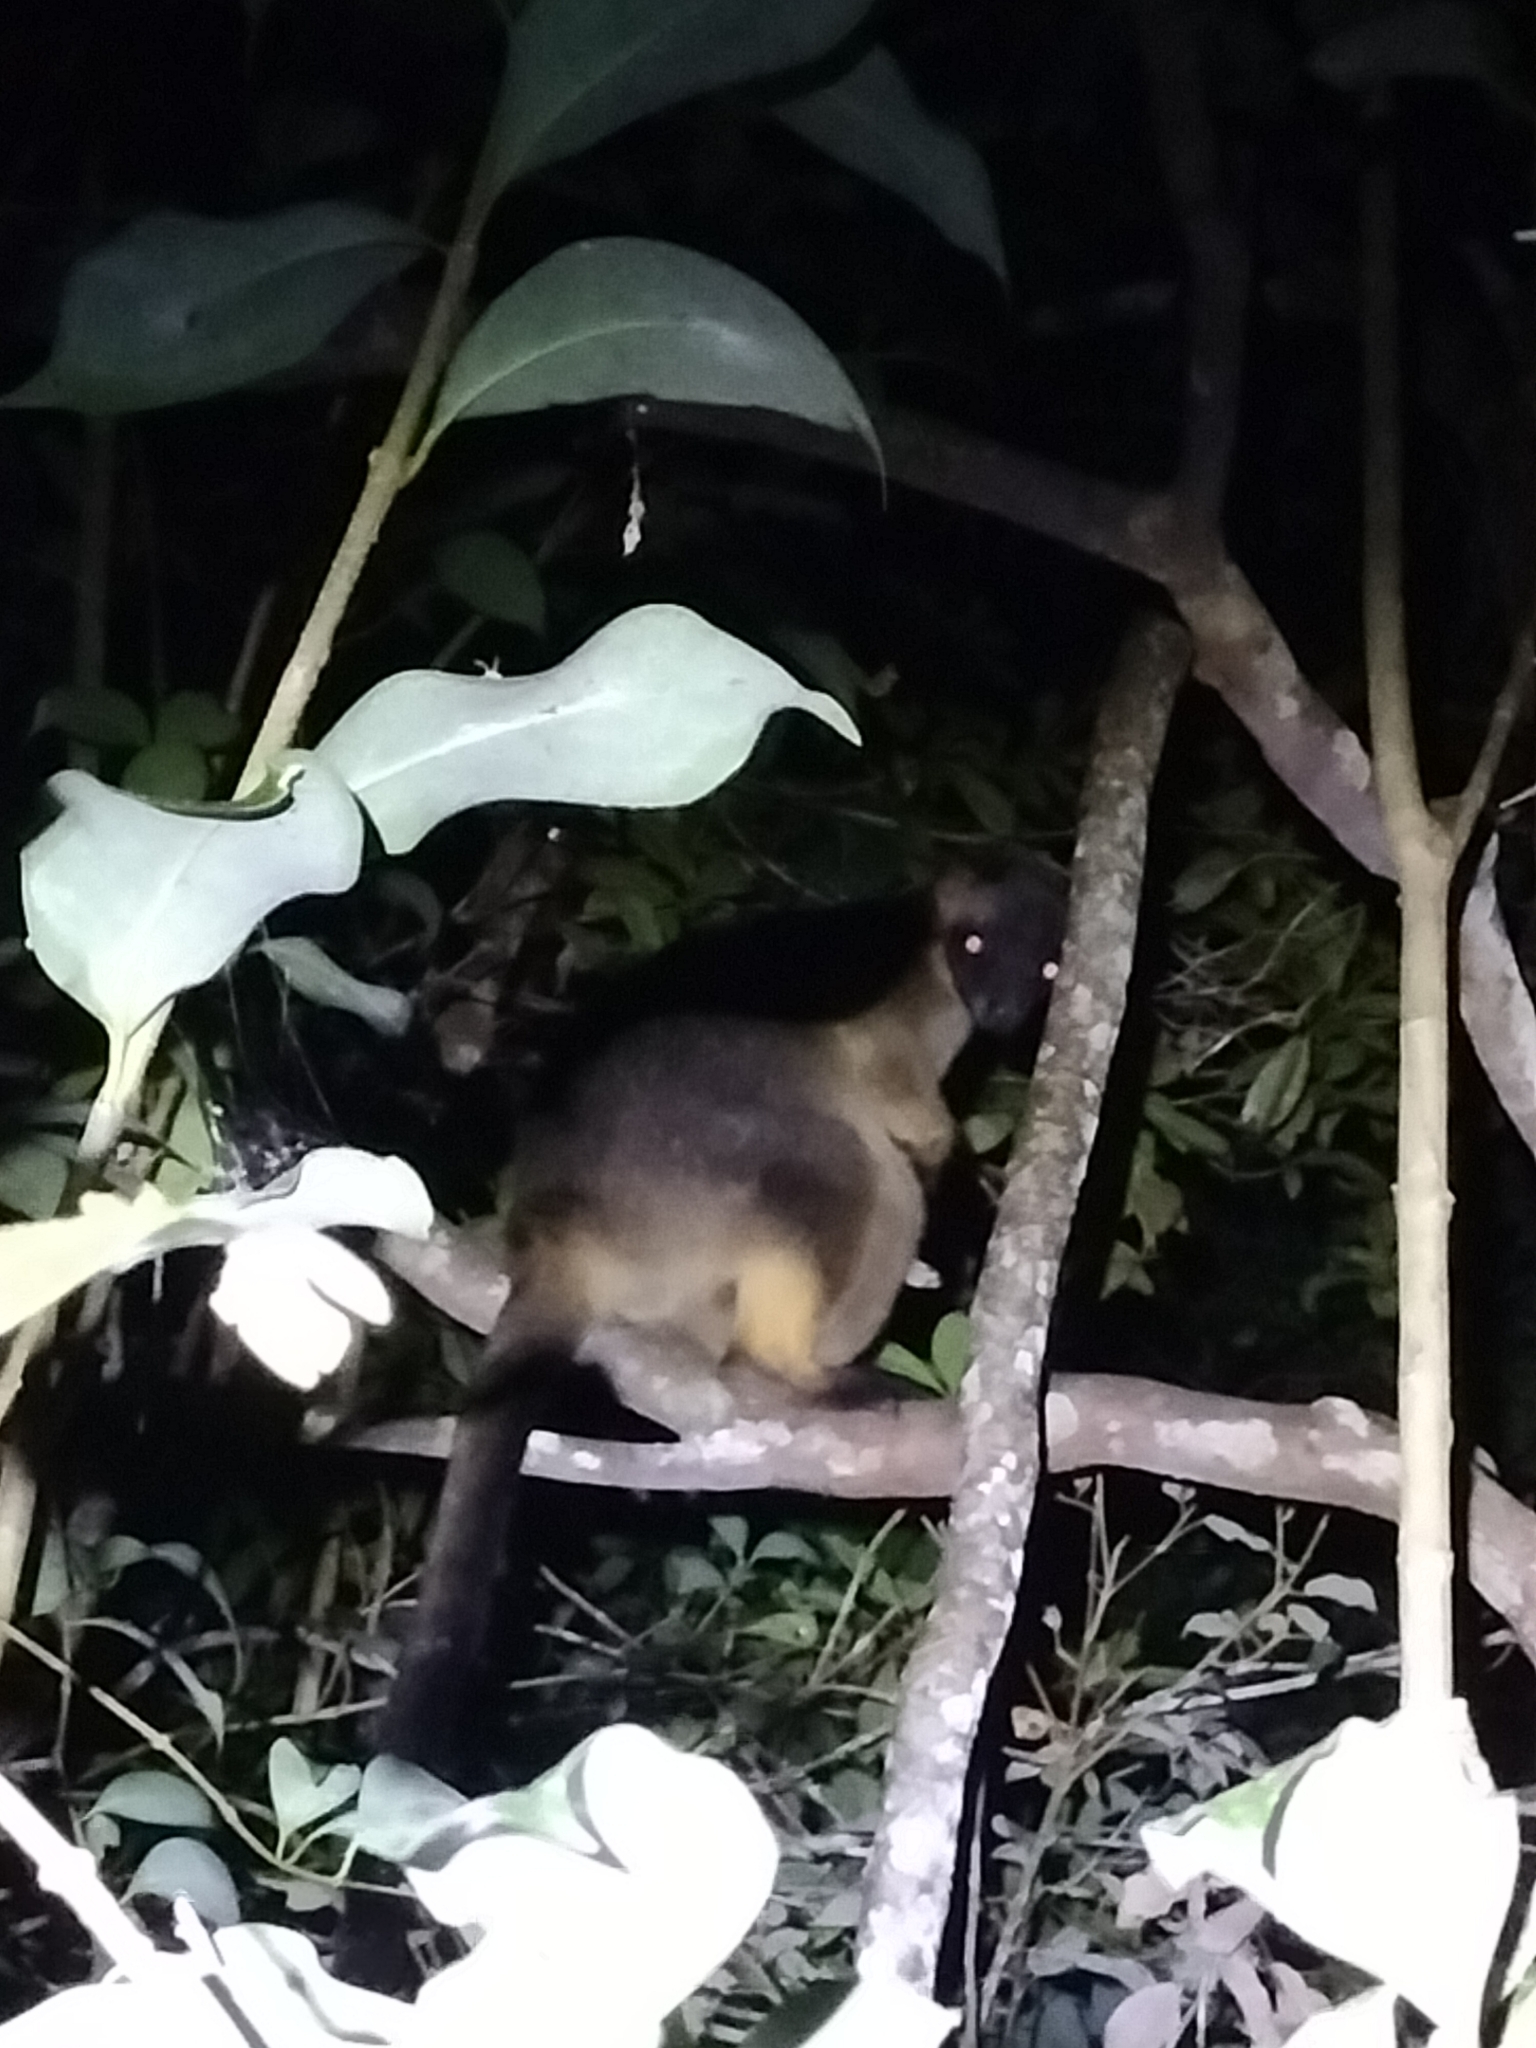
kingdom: Animalia
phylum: Chordata
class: Mammalia
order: Diprotodontia
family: Macropodidae
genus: Dendrolagus
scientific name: Dendrolagus lumholtzi
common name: Lumholtz's tree kangaroo
